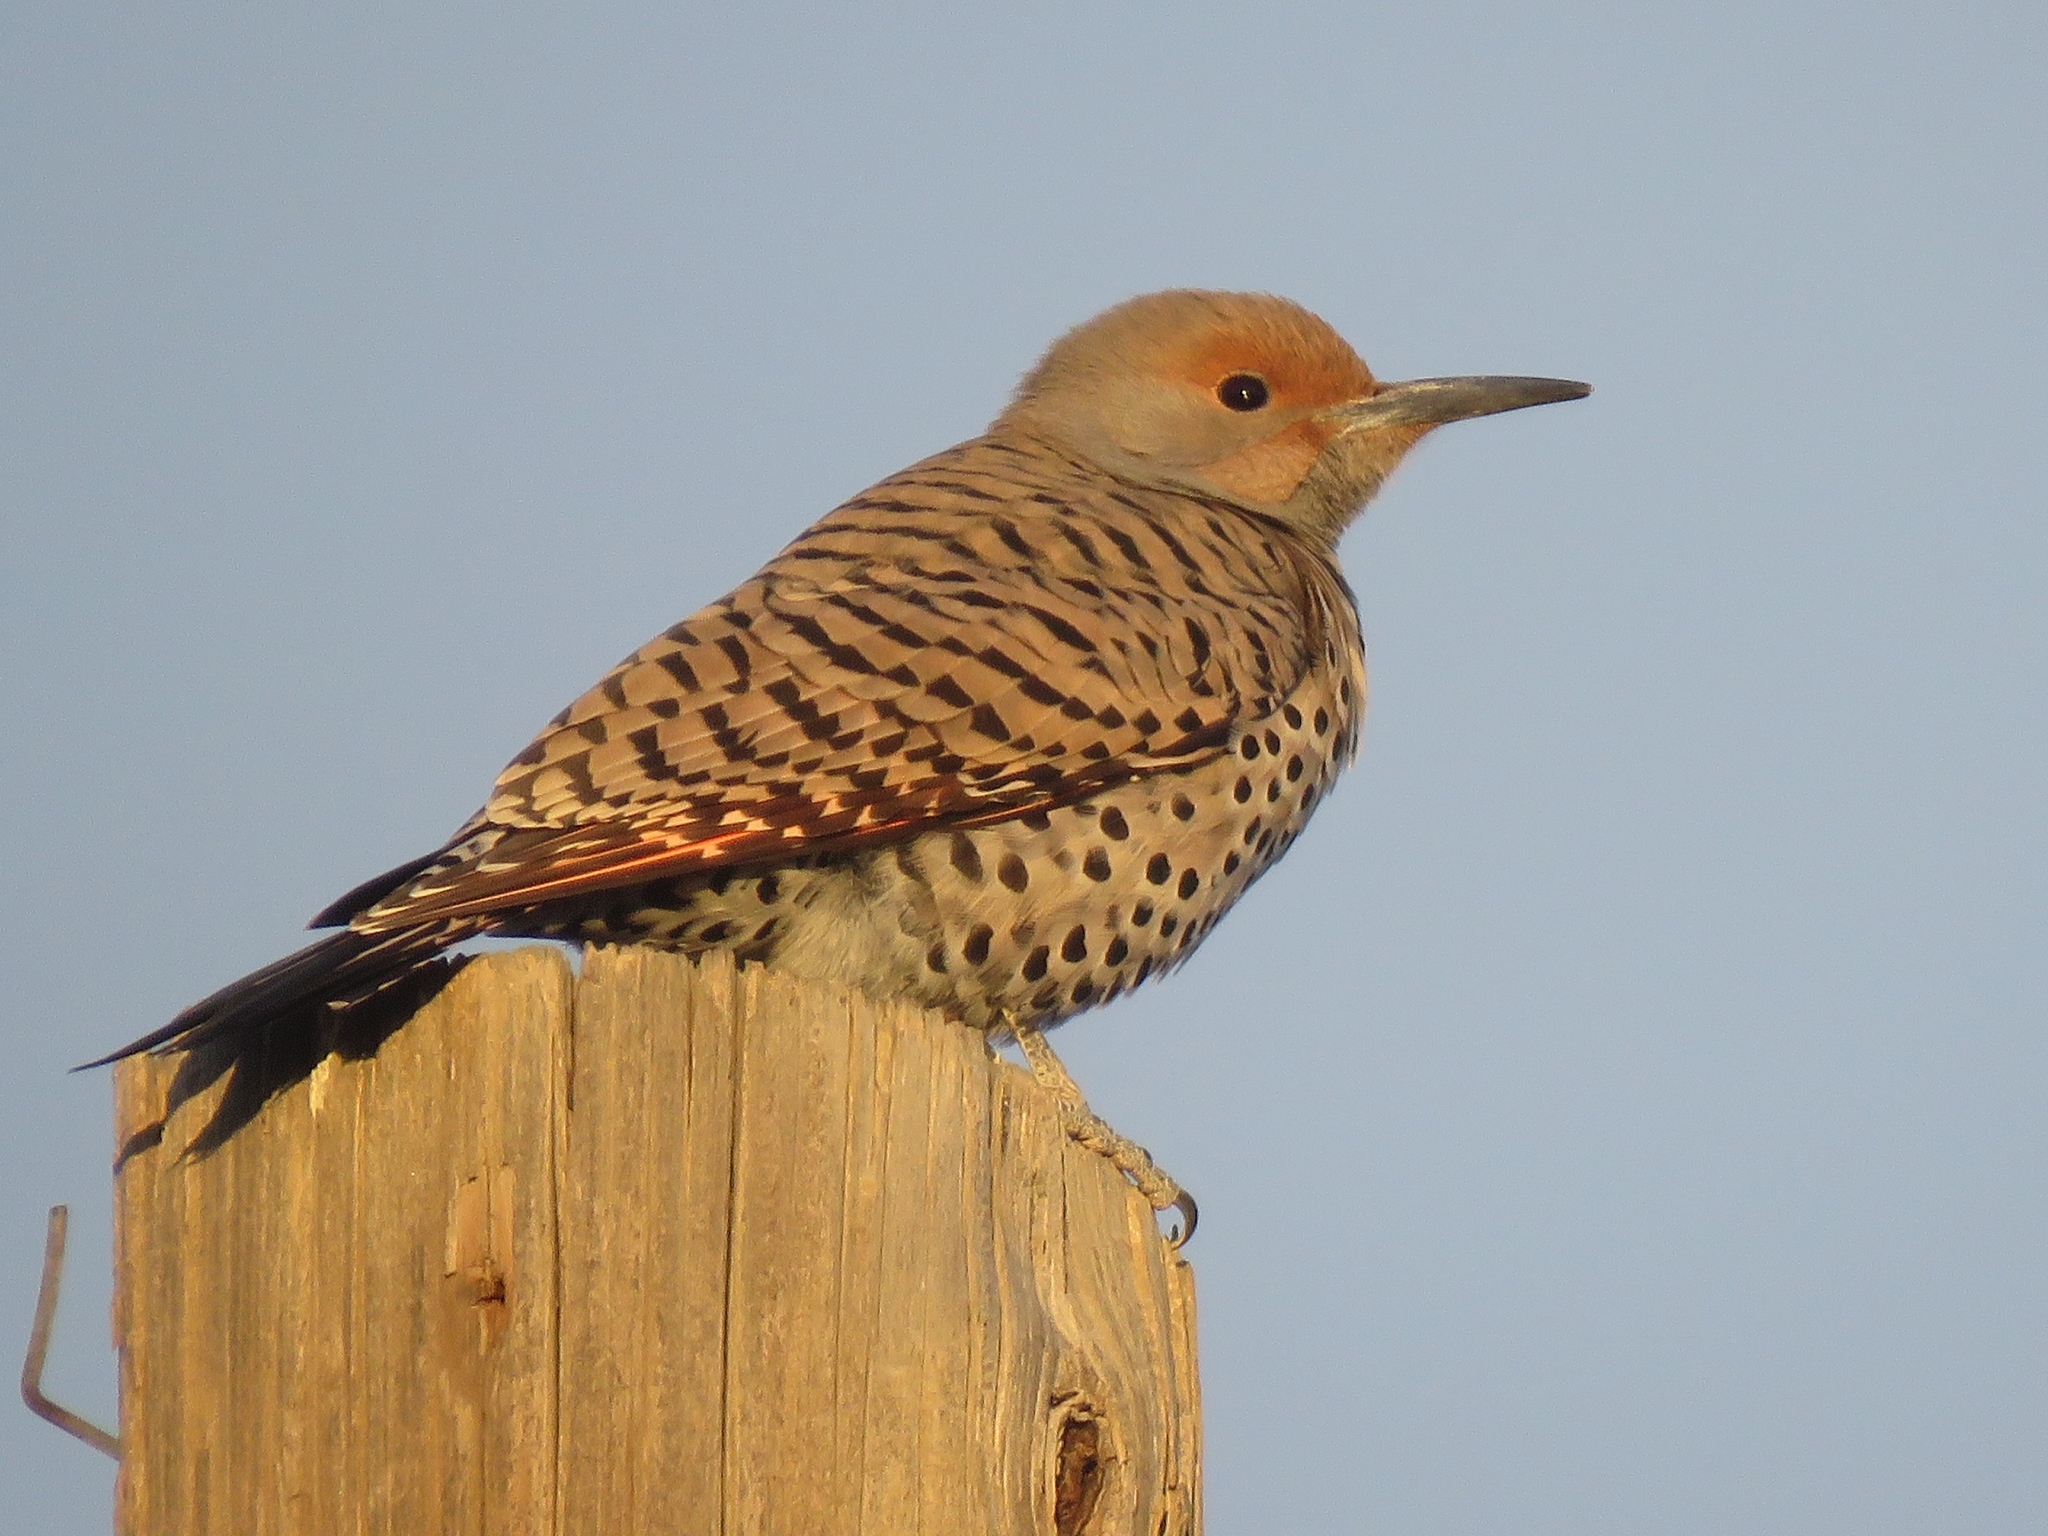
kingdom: Animalia
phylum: Chordata
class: Aves
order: Piciformes
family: Picidae
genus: Colaptes
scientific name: Colaptes auratus
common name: Northern flicker
